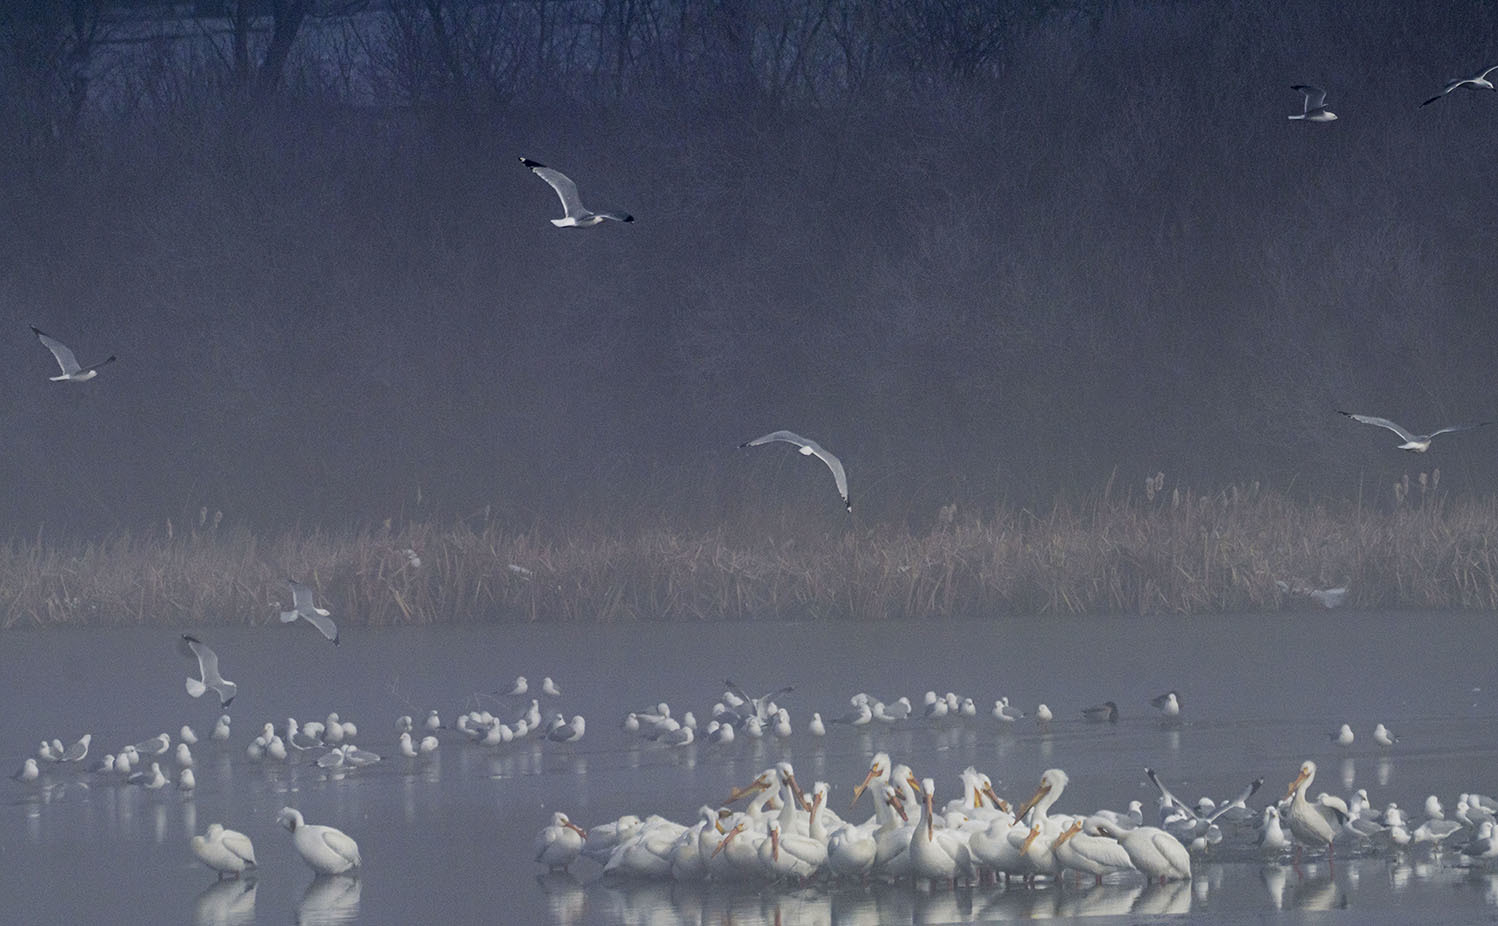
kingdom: Animalia
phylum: Chordata
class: Aves
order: Pelecaniformes
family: Pelecanidae
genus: Pelecanus
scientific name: Pelecanus erythrorhynchos
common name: American white pelican
